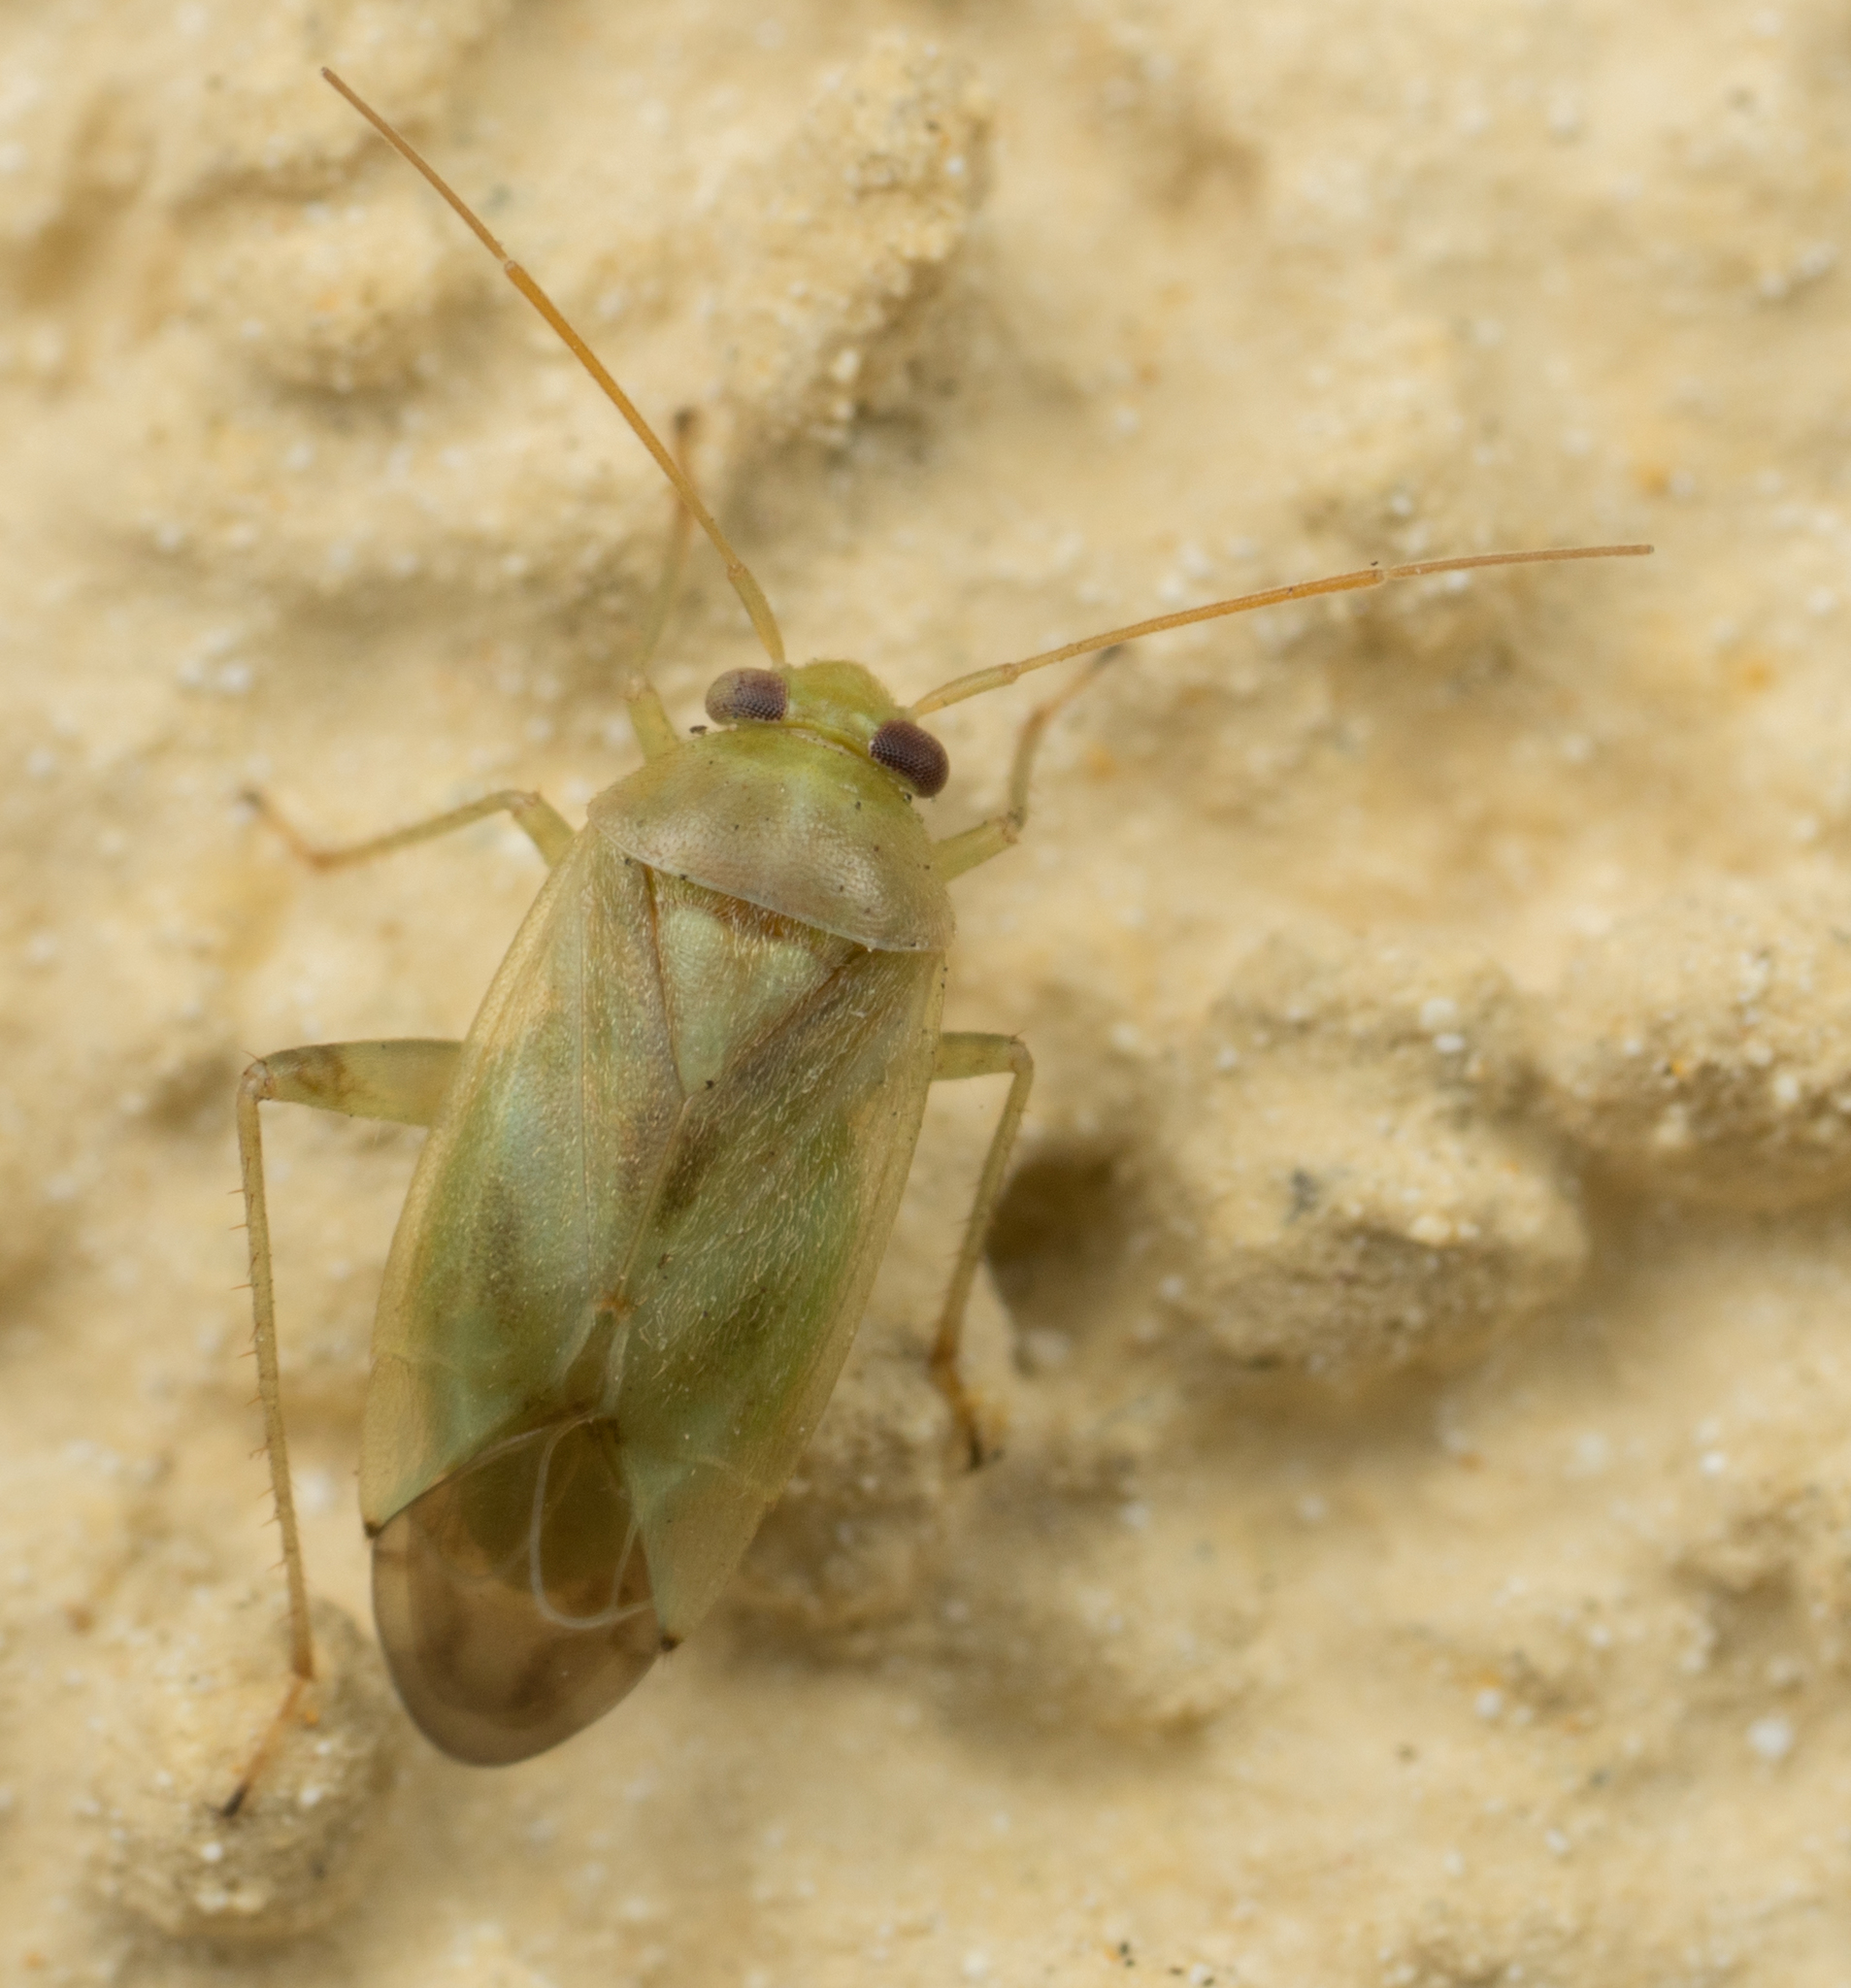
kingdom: Animalia
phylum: Arthropoda
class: Insecta
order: Hemiptera
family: Miridae
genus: Taylorilygus
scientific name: Taylorilygus apicalis
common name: Plant bug
